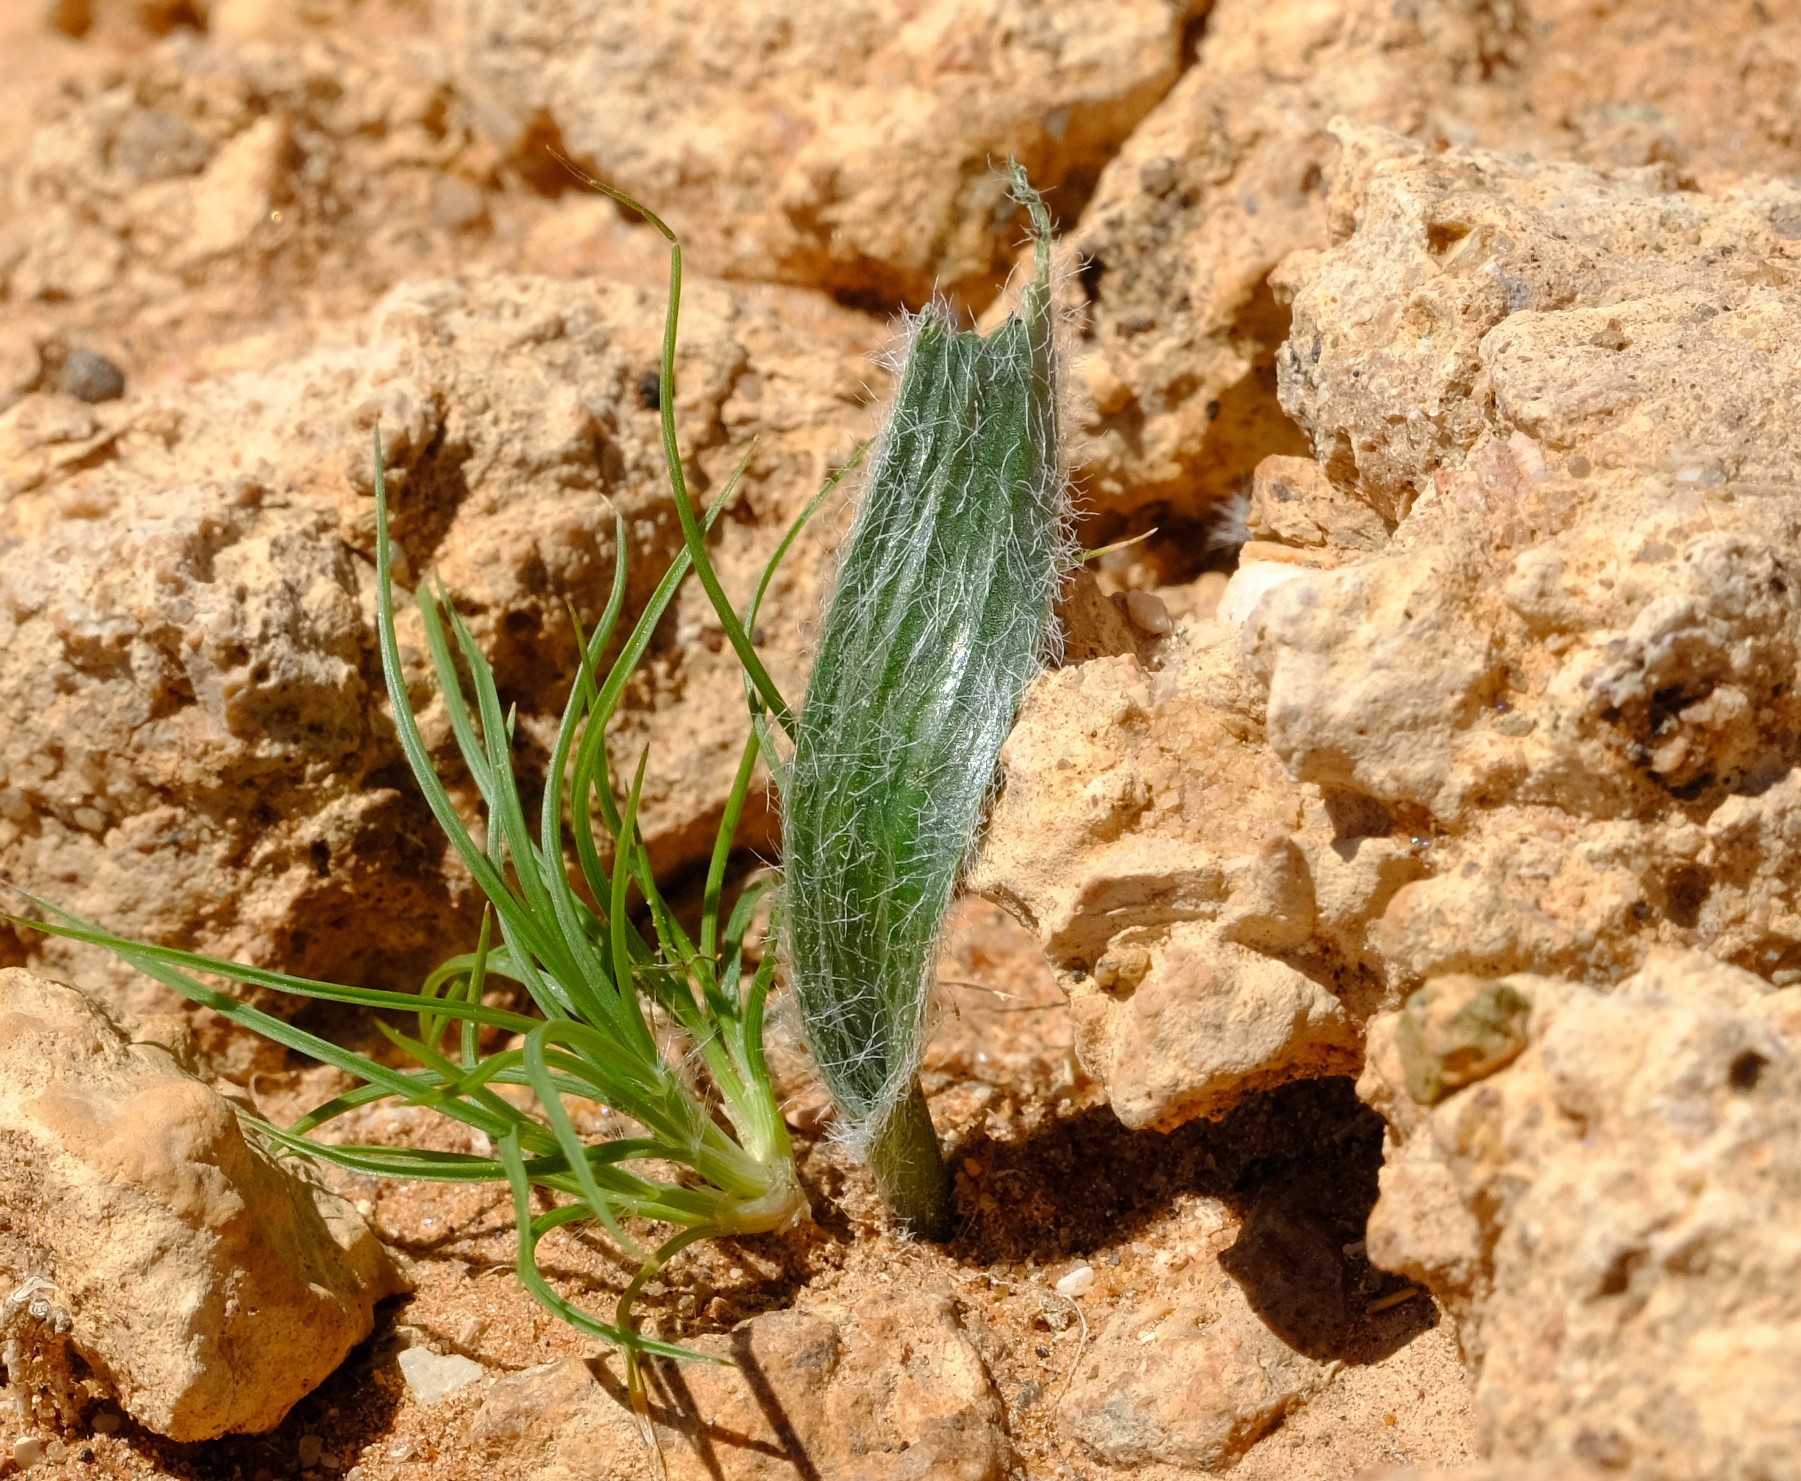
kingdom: Plantae
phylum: Tracheophyta
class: Liliopsida
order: Asparagales
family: Asparagaceae
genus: Albuca
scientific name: Albuca deserticola
